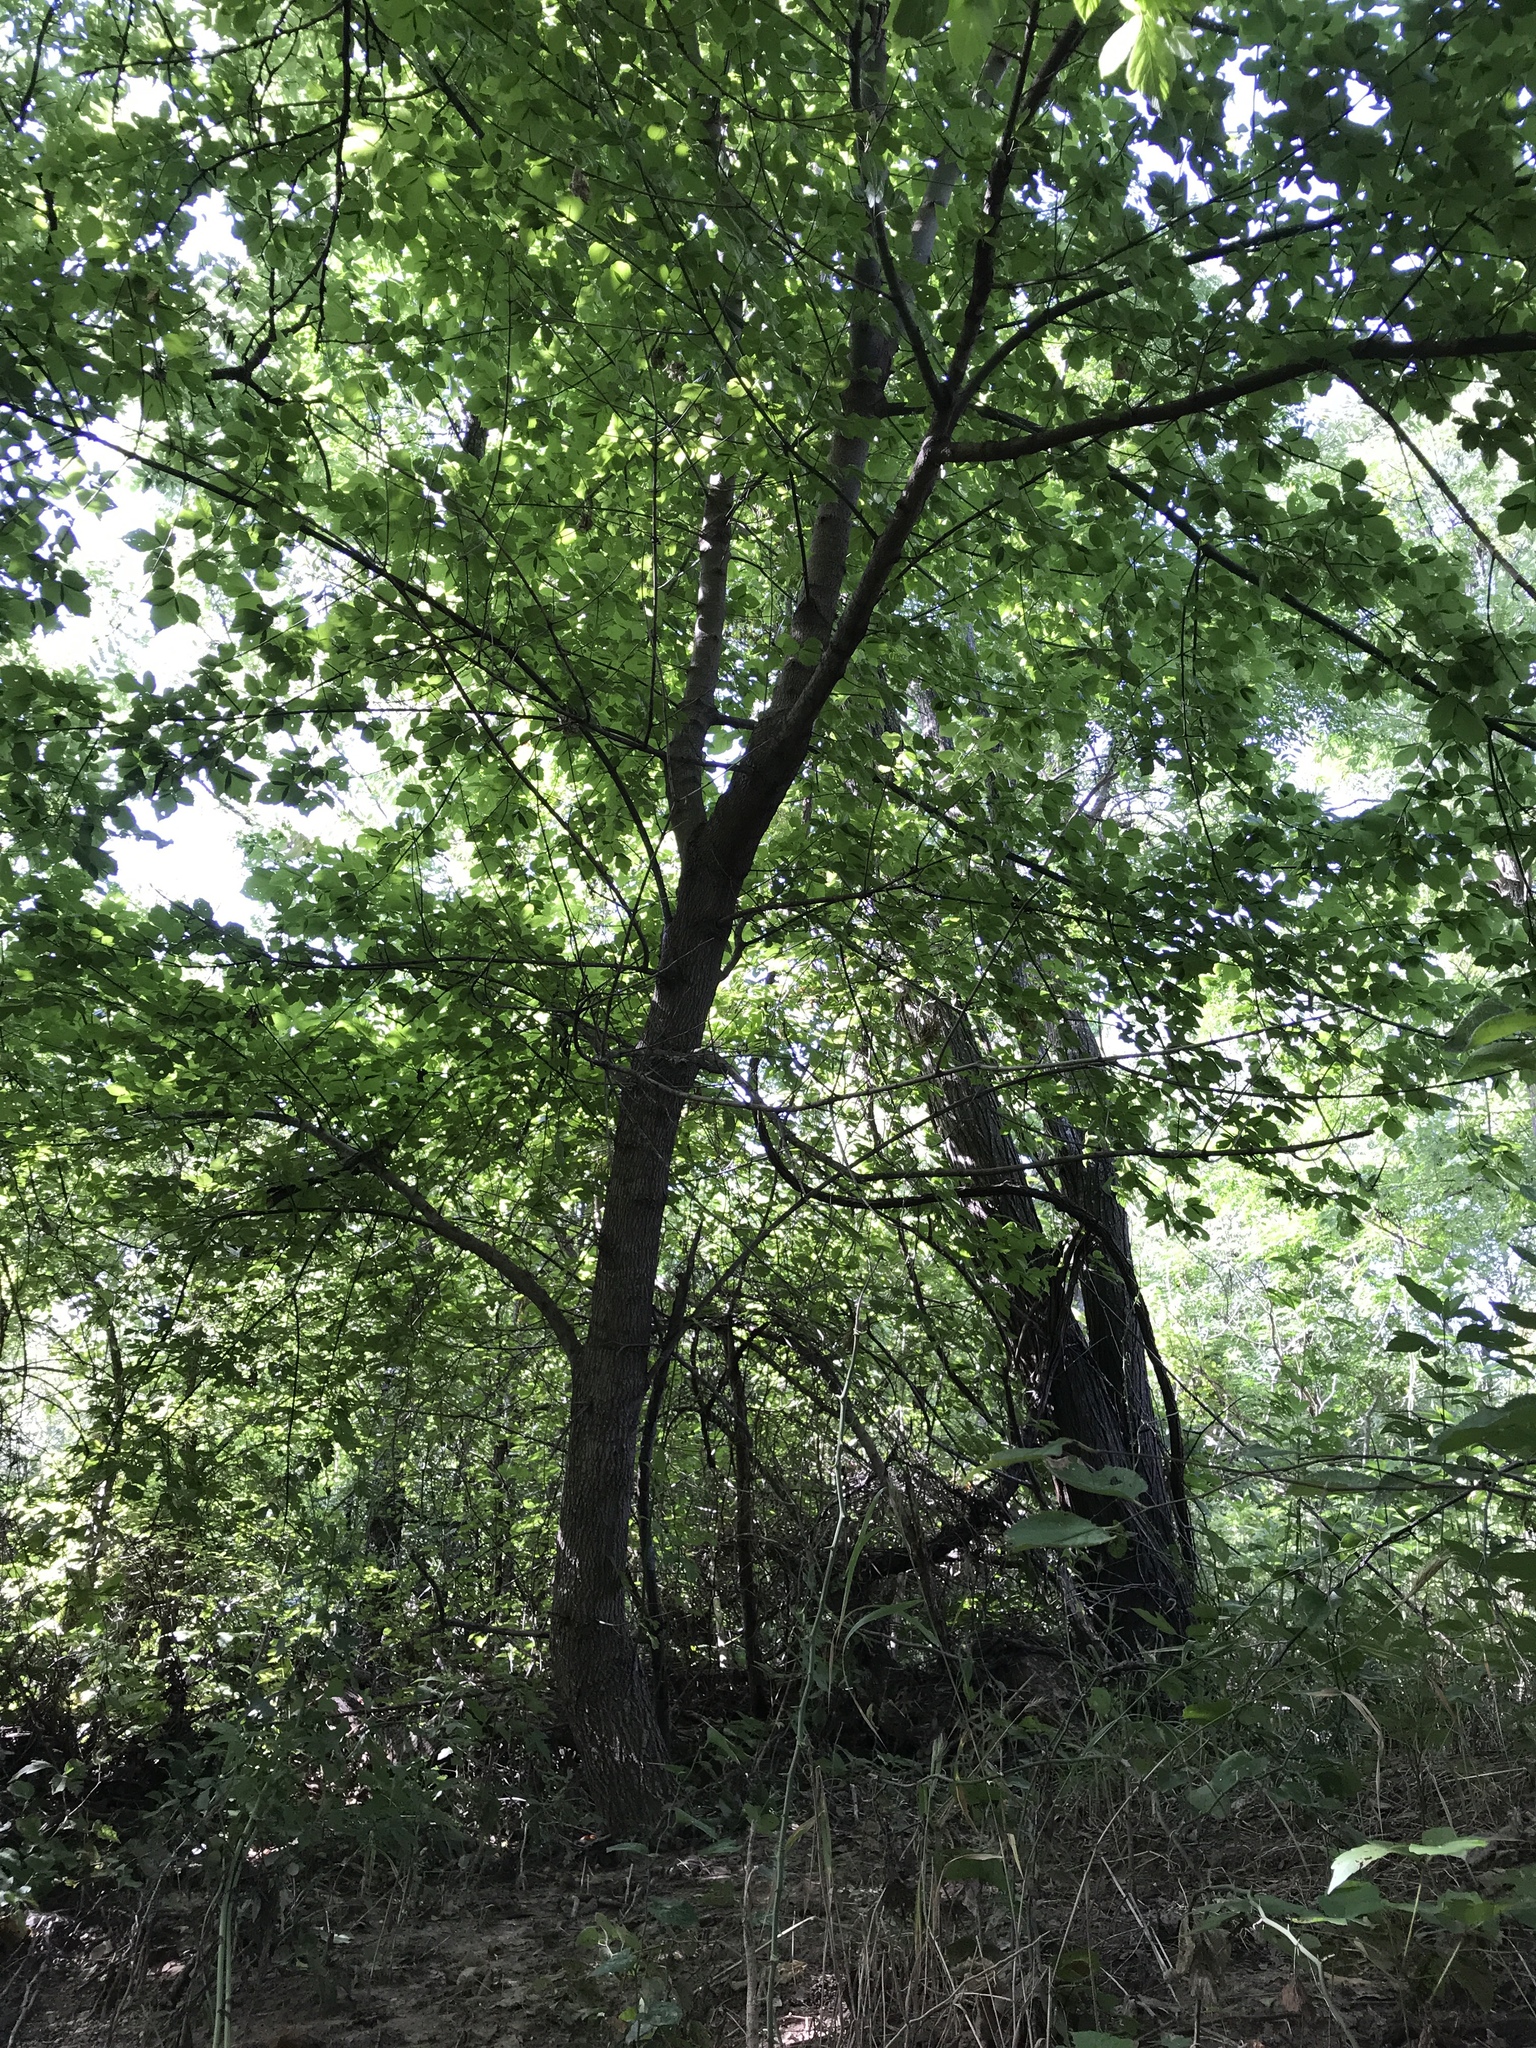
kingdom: Plantae
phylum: Tracheophyta
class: Magnoliopsida
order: Sapindales
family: Sapindaceae
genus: Acer
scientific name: Acer negundo
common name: Ashleaf maple
